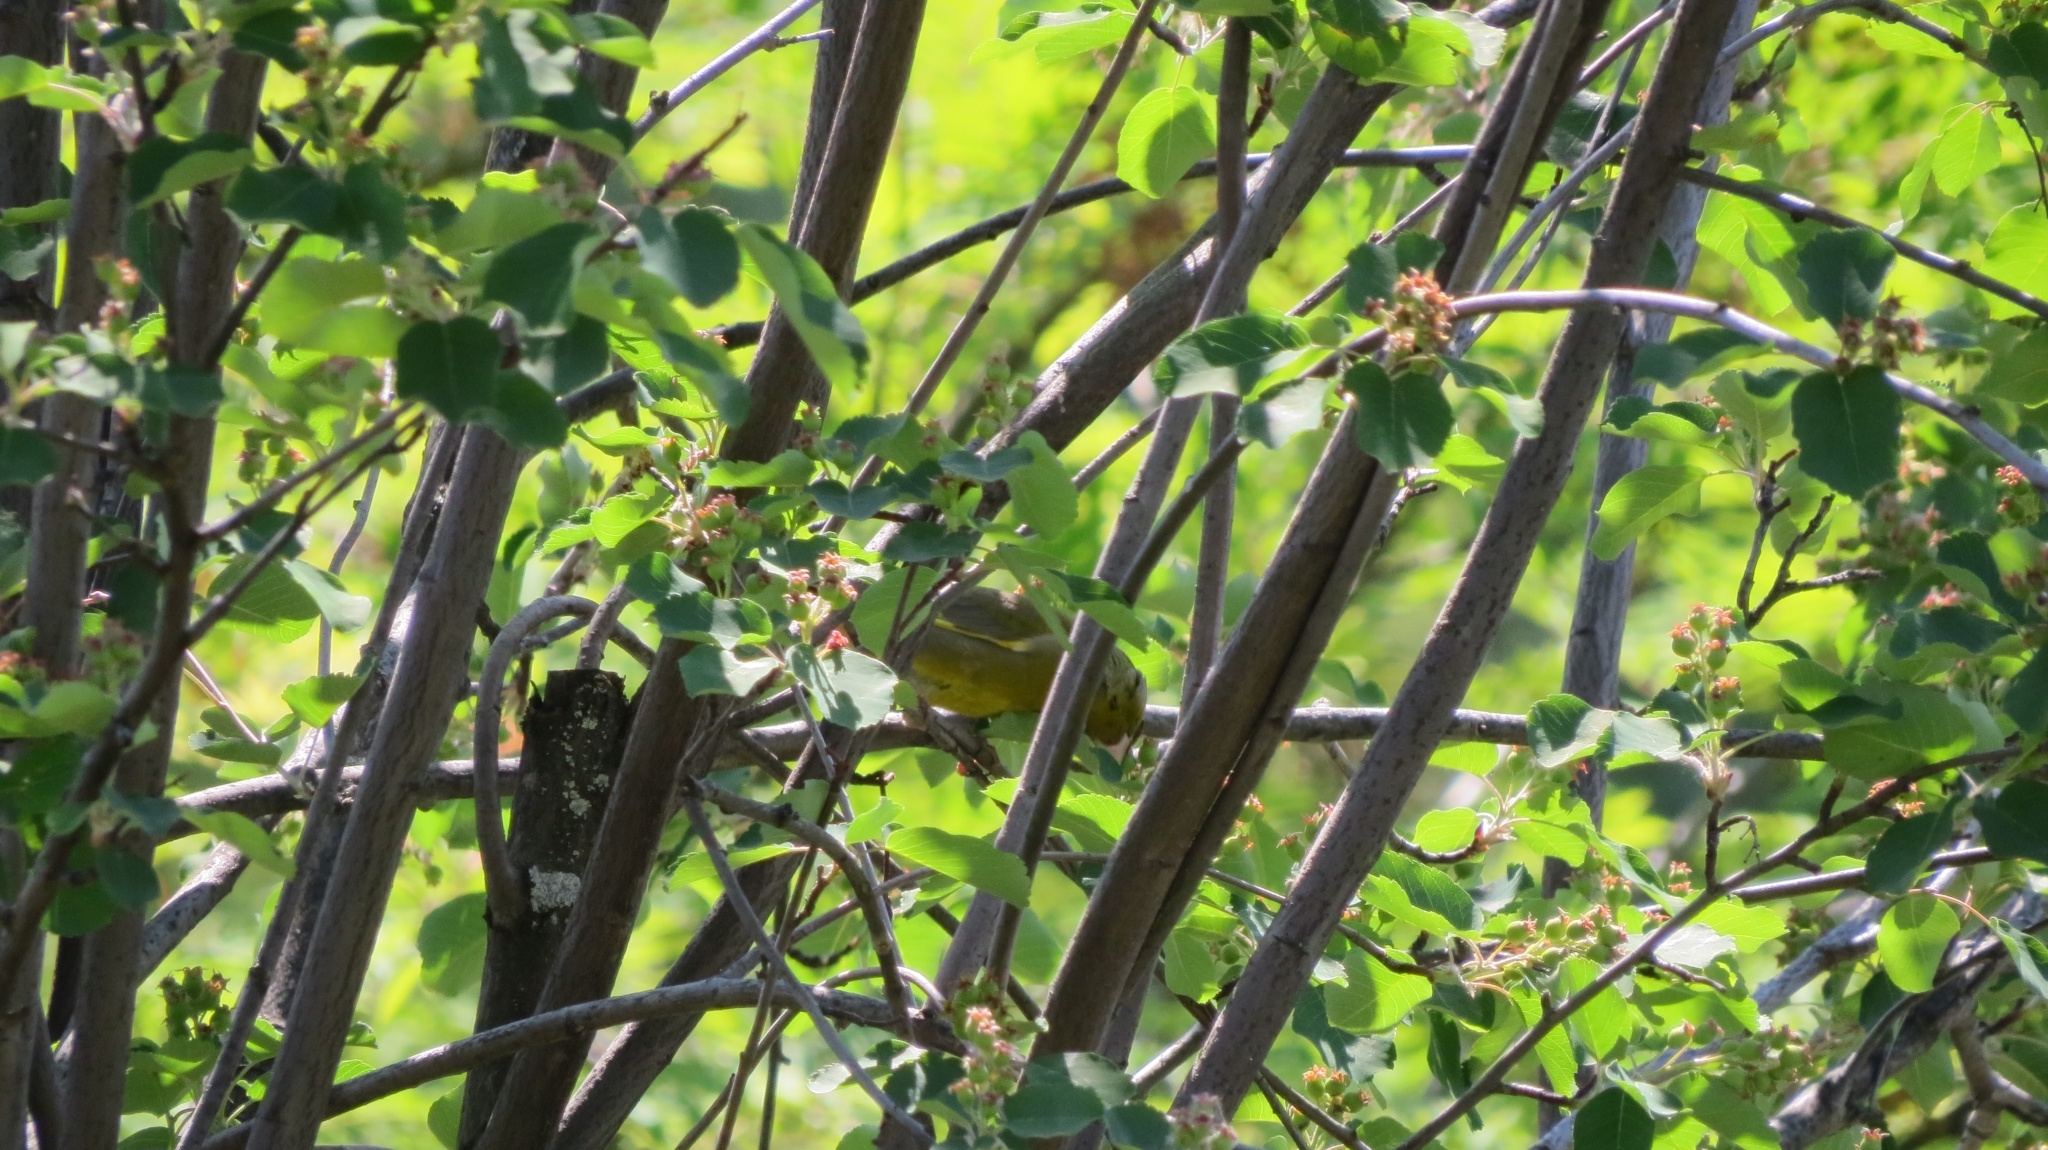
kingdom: Plantae
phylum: Tracheophyta
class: Liliopsida
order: Poales
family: Poaceae
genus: Chloris
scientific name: Chloris chloris
